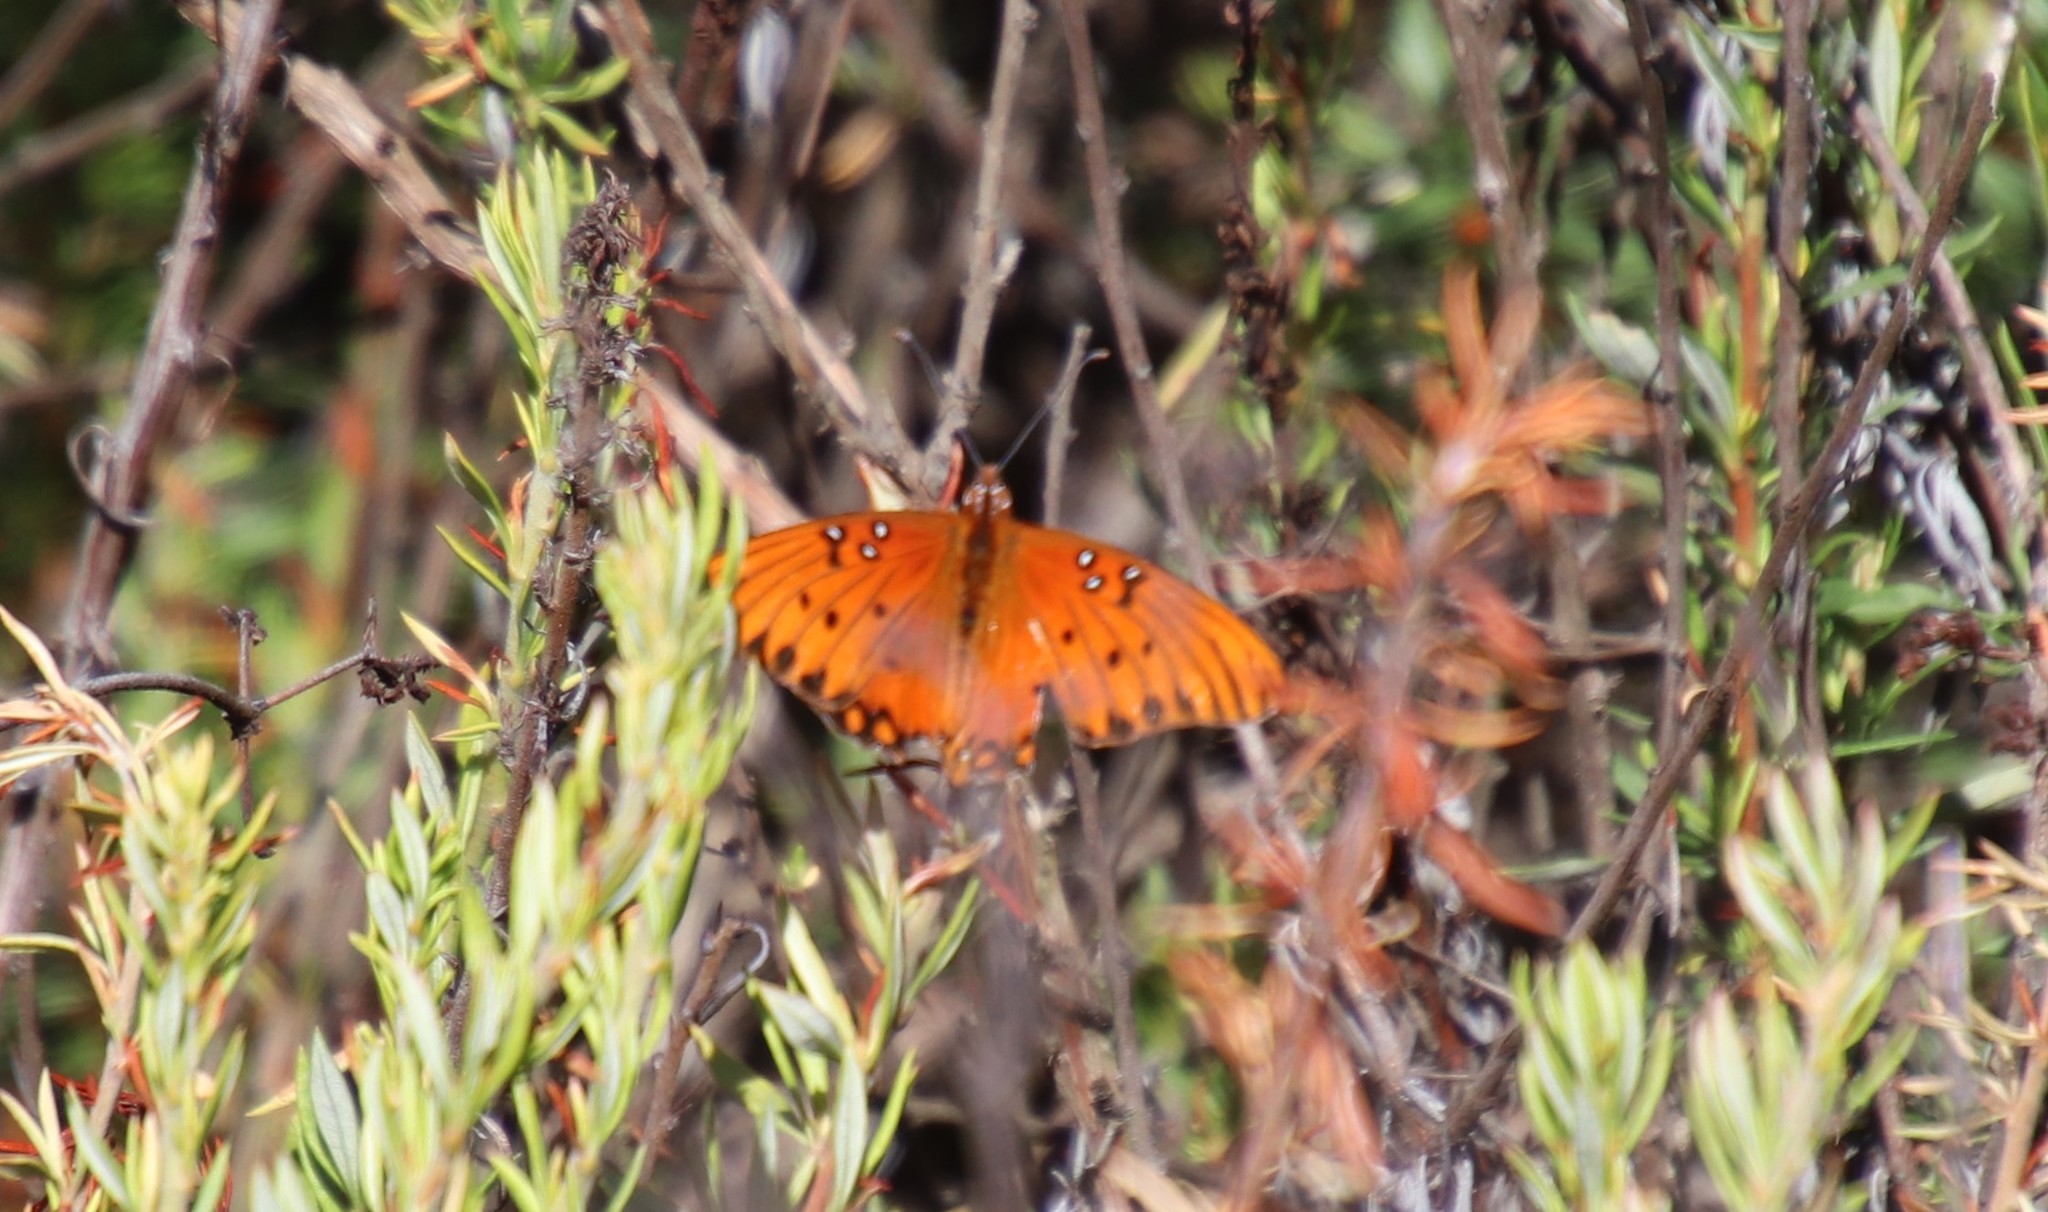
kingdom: Animalia
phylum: Arthropoda
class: Insecta
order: Lepidoptera
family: Nymphalidae
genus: Dione
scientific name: Dione vanillae
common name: Gulf fritillary
